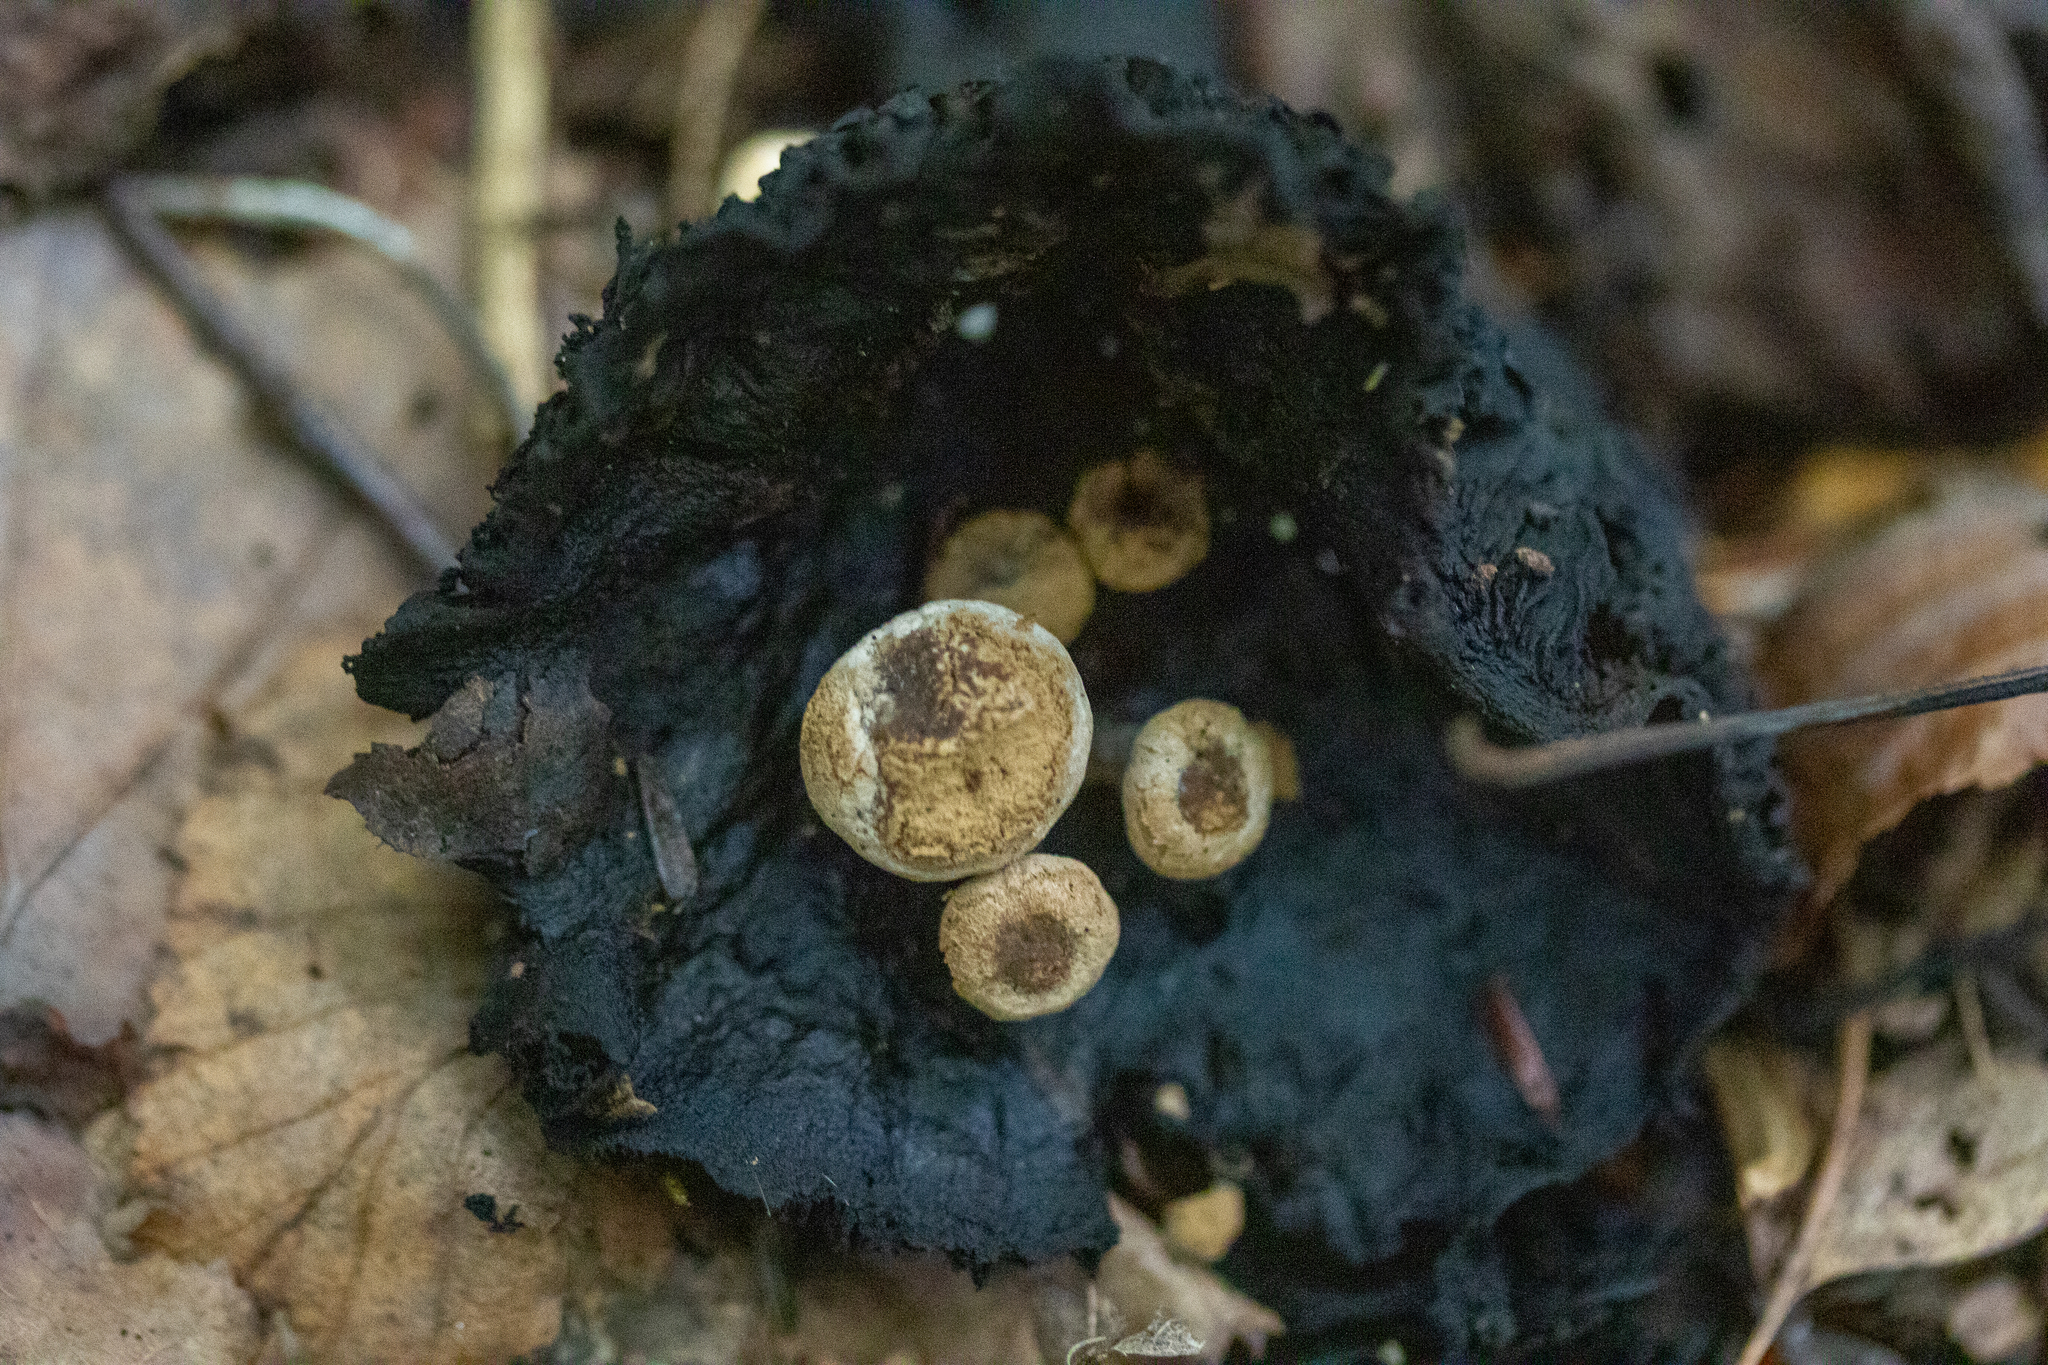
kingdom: Fungi
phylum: Basidiomycota
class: Agaricomycetes
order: Agaricales
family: Lyophyllaceae
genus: Asterophora
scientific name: Asterophora lycoperdoides
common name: Pick-a-back toadstool
